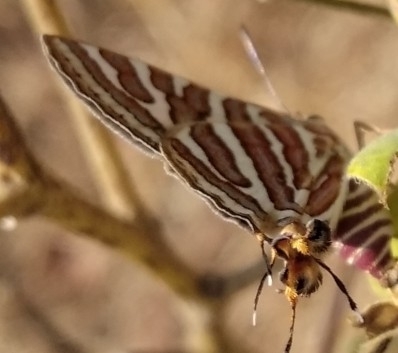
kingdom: Animalia
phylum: Arthropoda
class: Insecta
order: Lepidoptera
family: Lycaenidae
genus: Cigaritis
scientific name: Cigaritis
